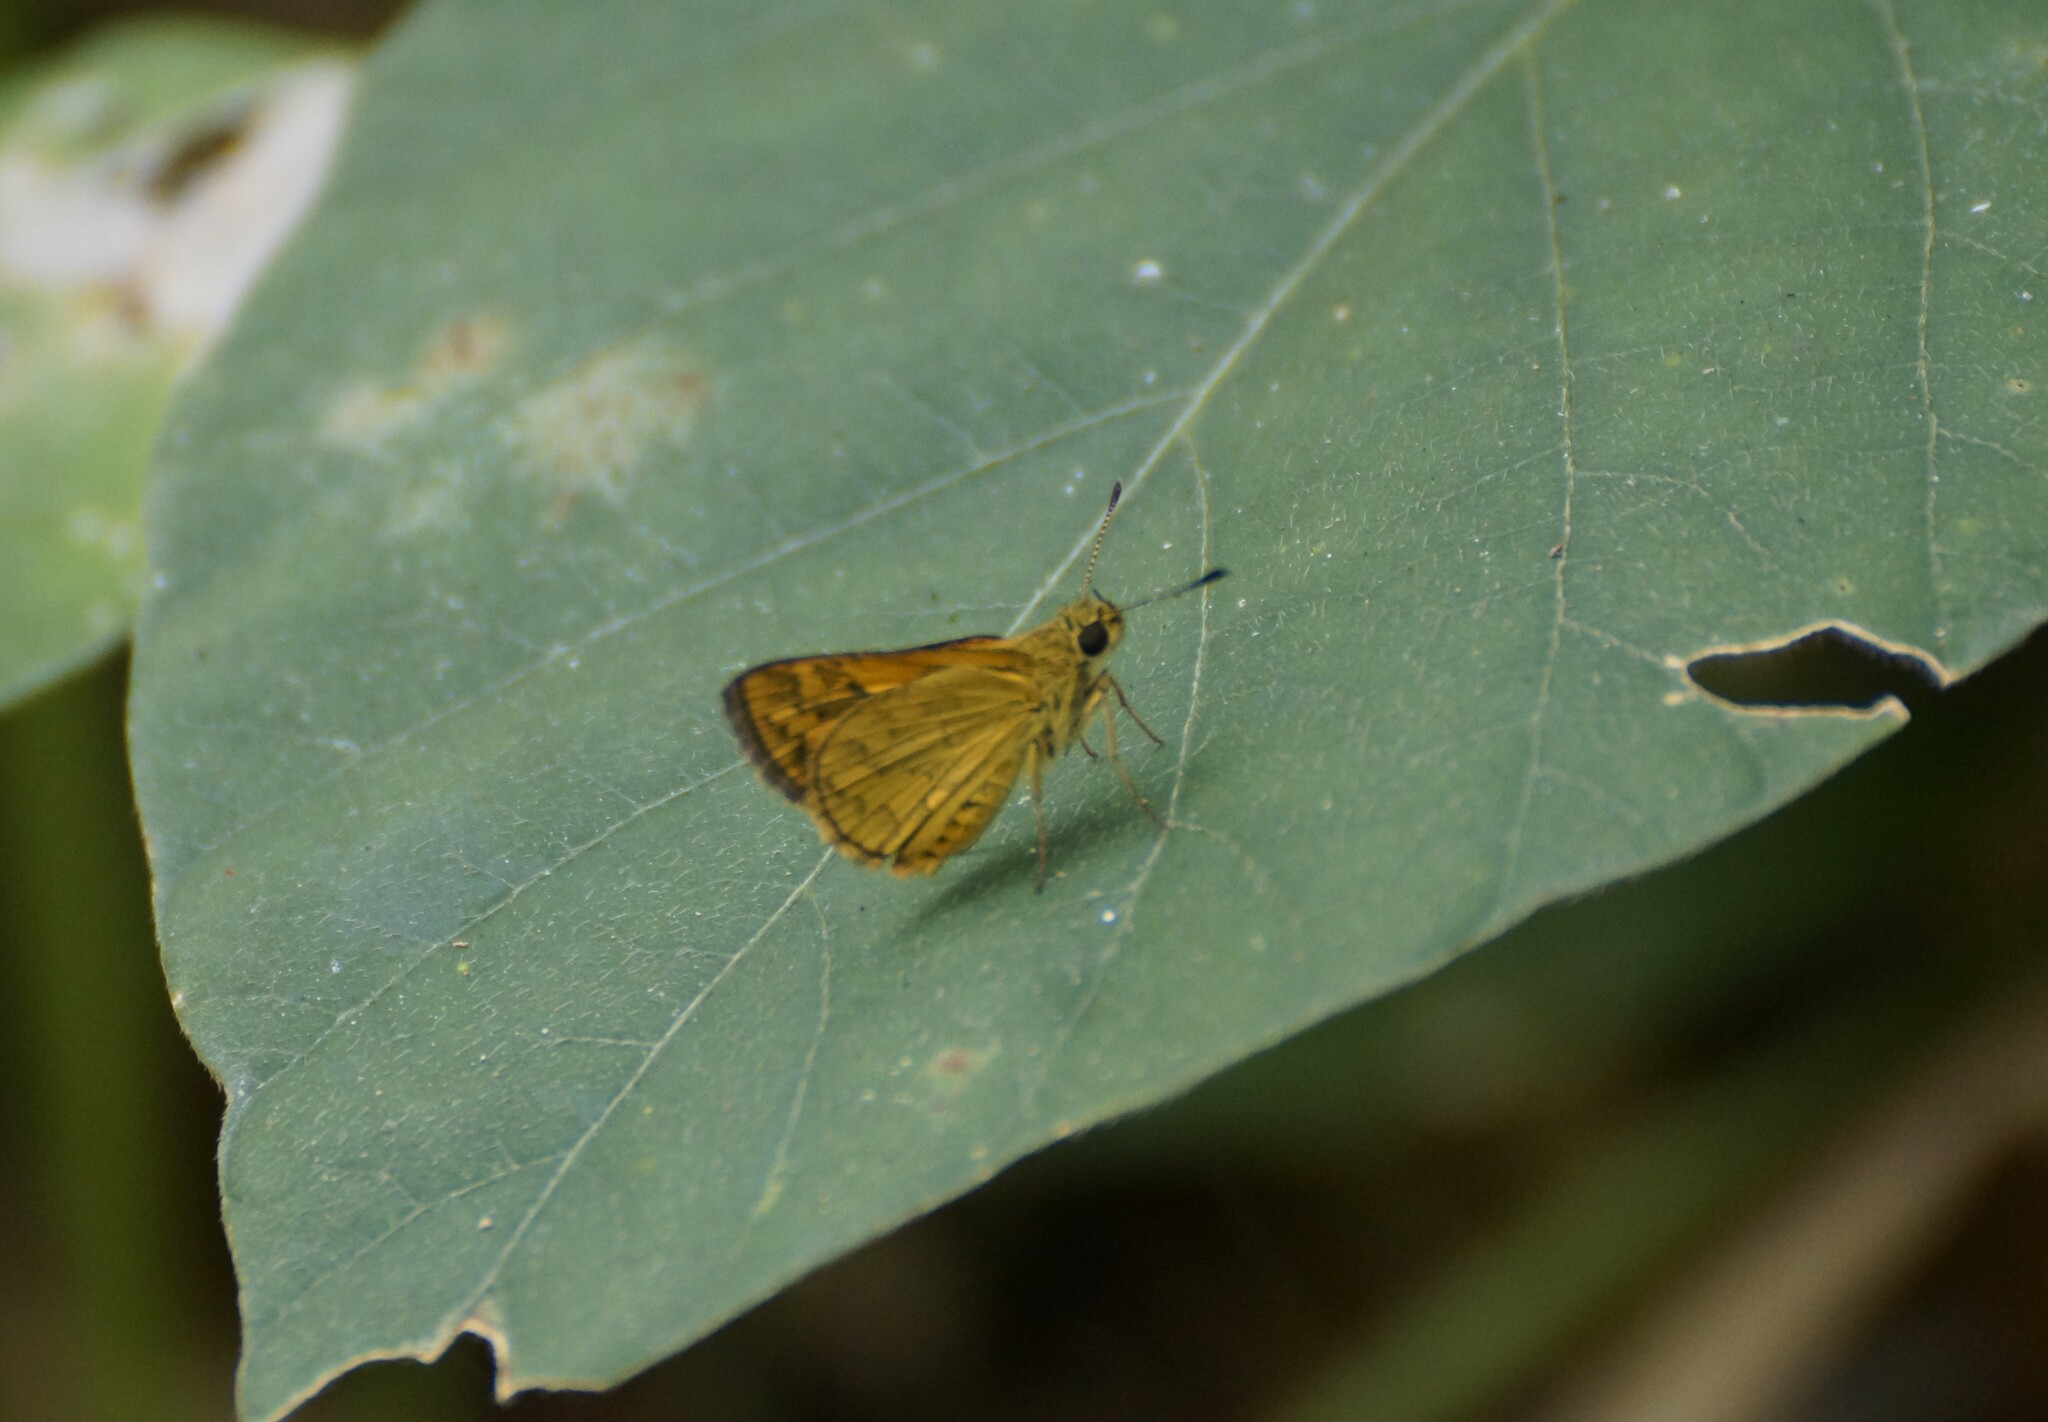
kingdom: Animalia
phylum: Arthropoda
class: Insecta
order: Lepidoptera
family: Hesperiidae
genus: Suniana
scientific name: Suniana sunias
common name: Wide-brand grass-dart
